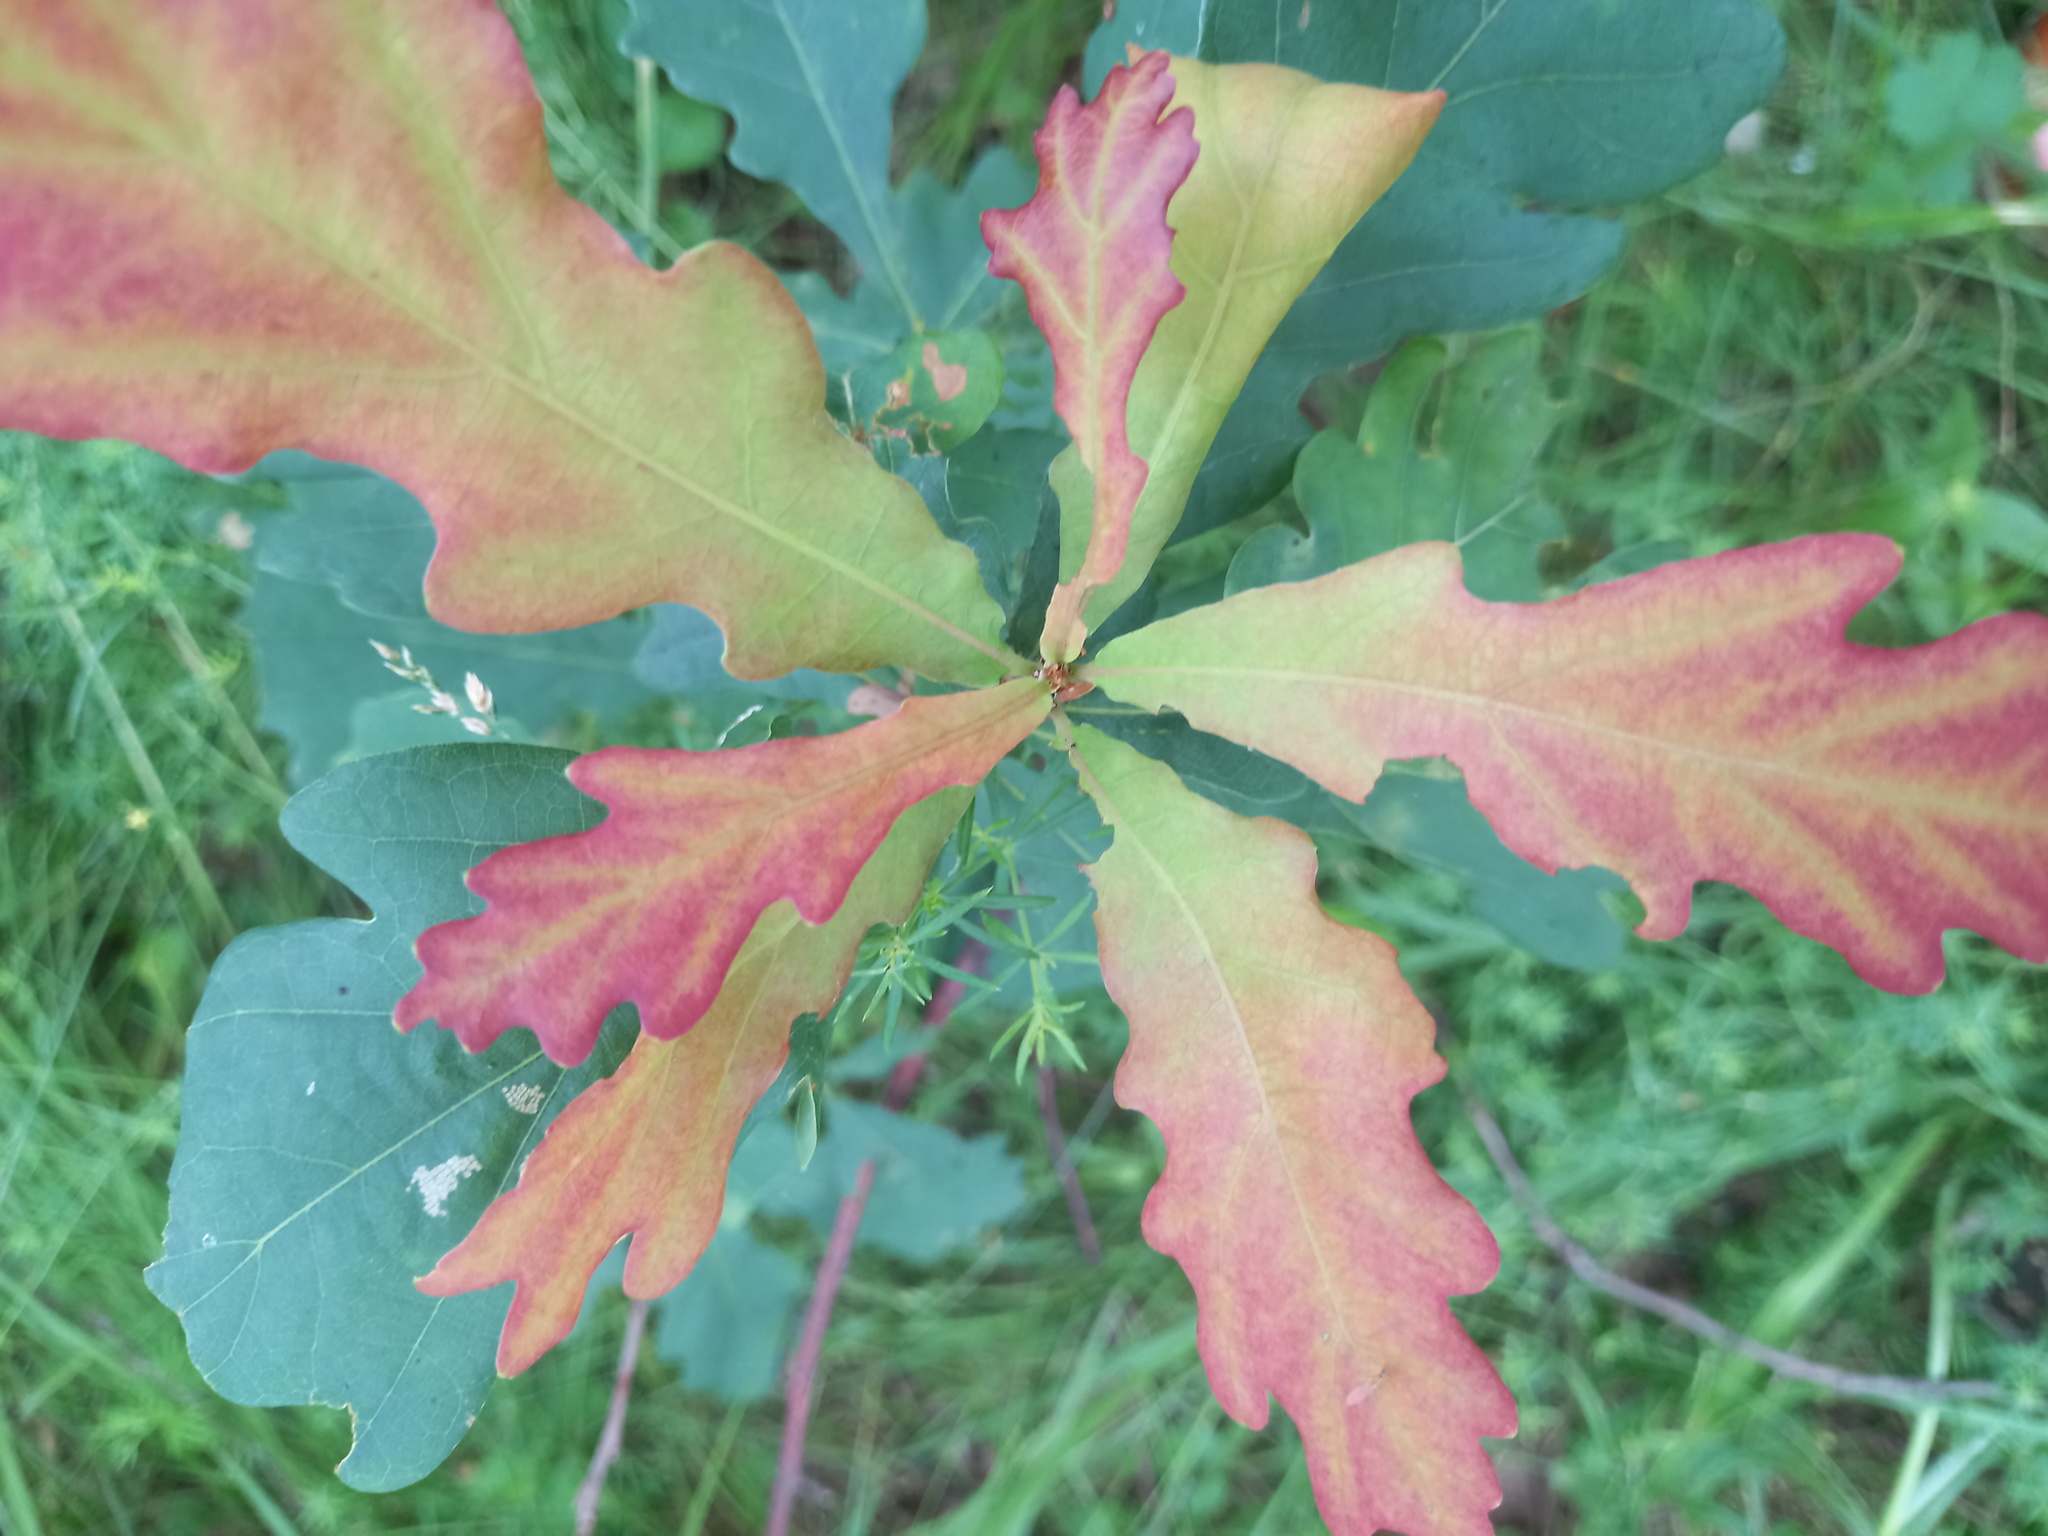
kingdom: Plantae
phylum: Tracheophyta
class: Magnoliopsida
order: Fagales
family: Fagaceae
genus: Quercus
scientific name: Quercus robur
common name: Pedunculate oak
